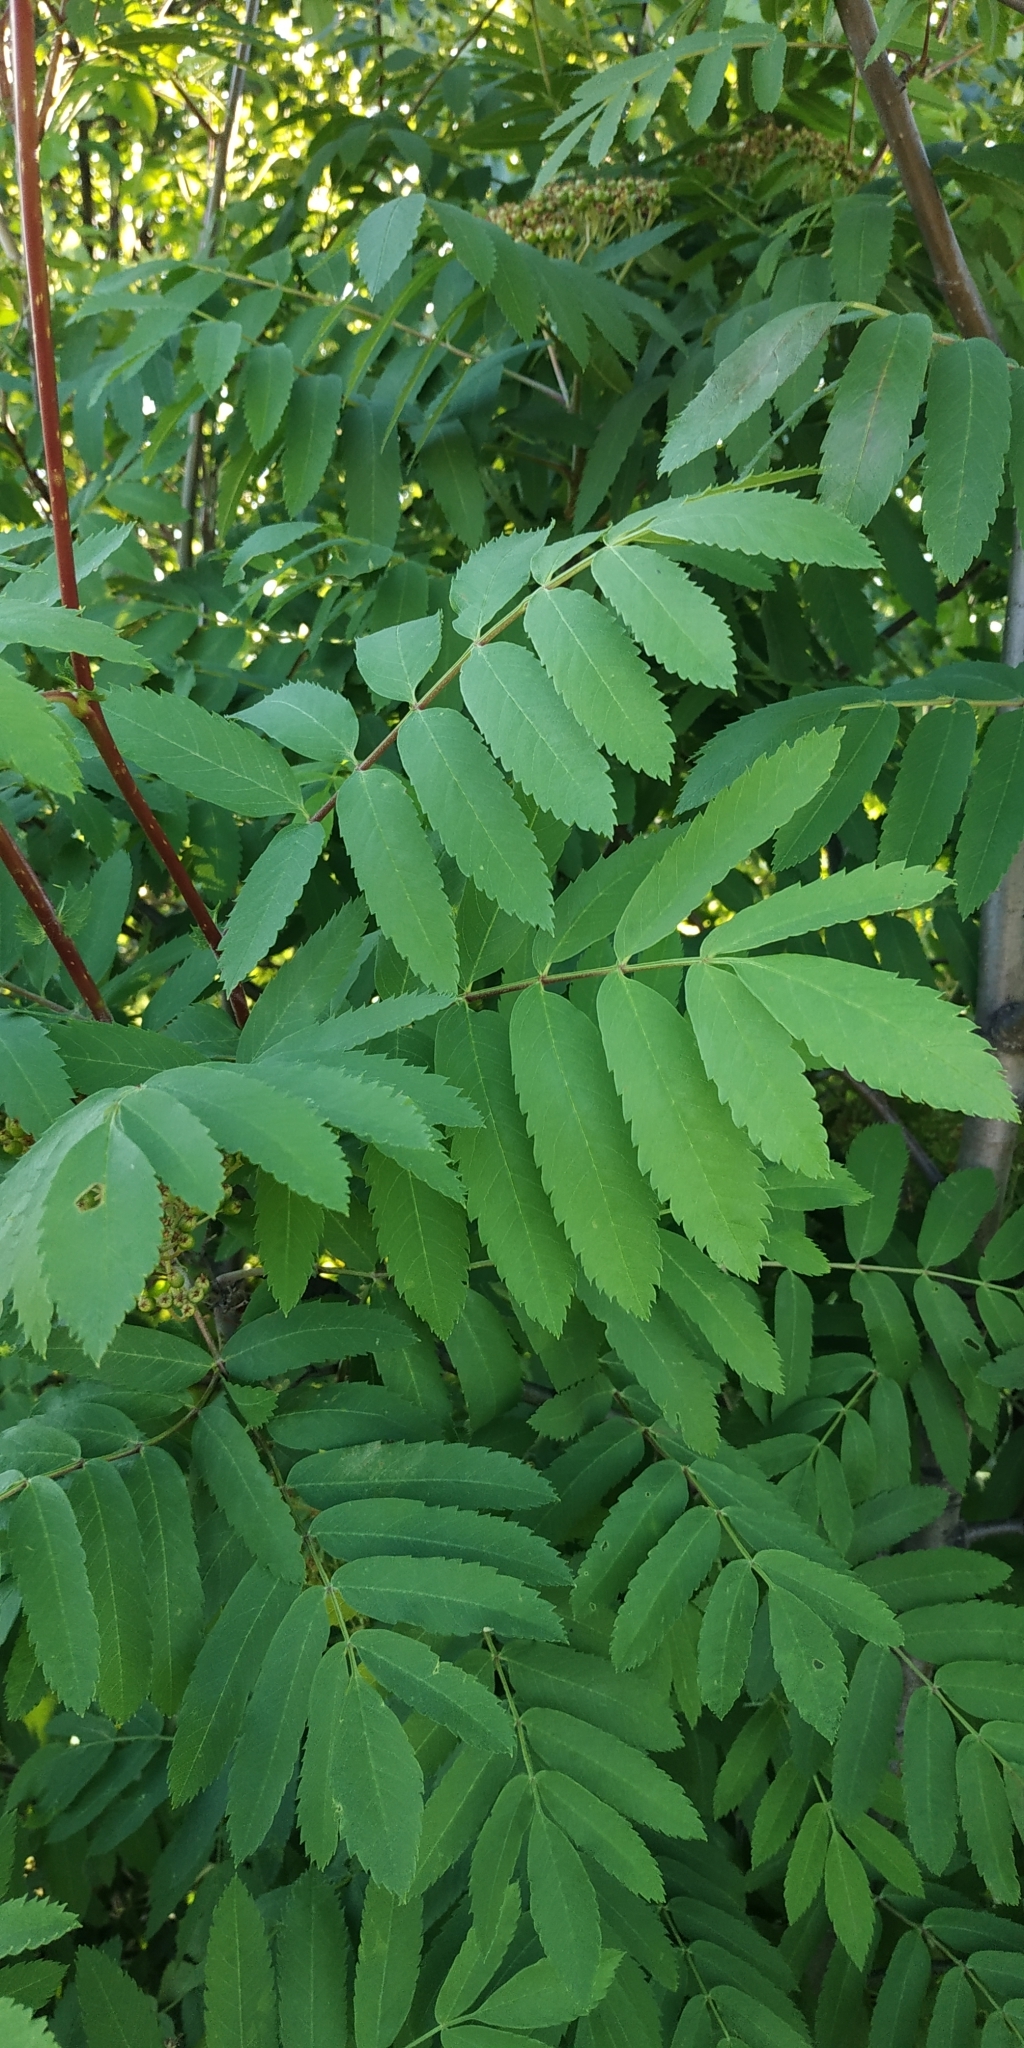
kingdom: Plantae
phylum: Tracheophyta
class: Magnoliopsida
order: Rosales
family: Rosaceae
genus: Sorbus
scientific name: Sorbus aucuparia
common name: Rowan
